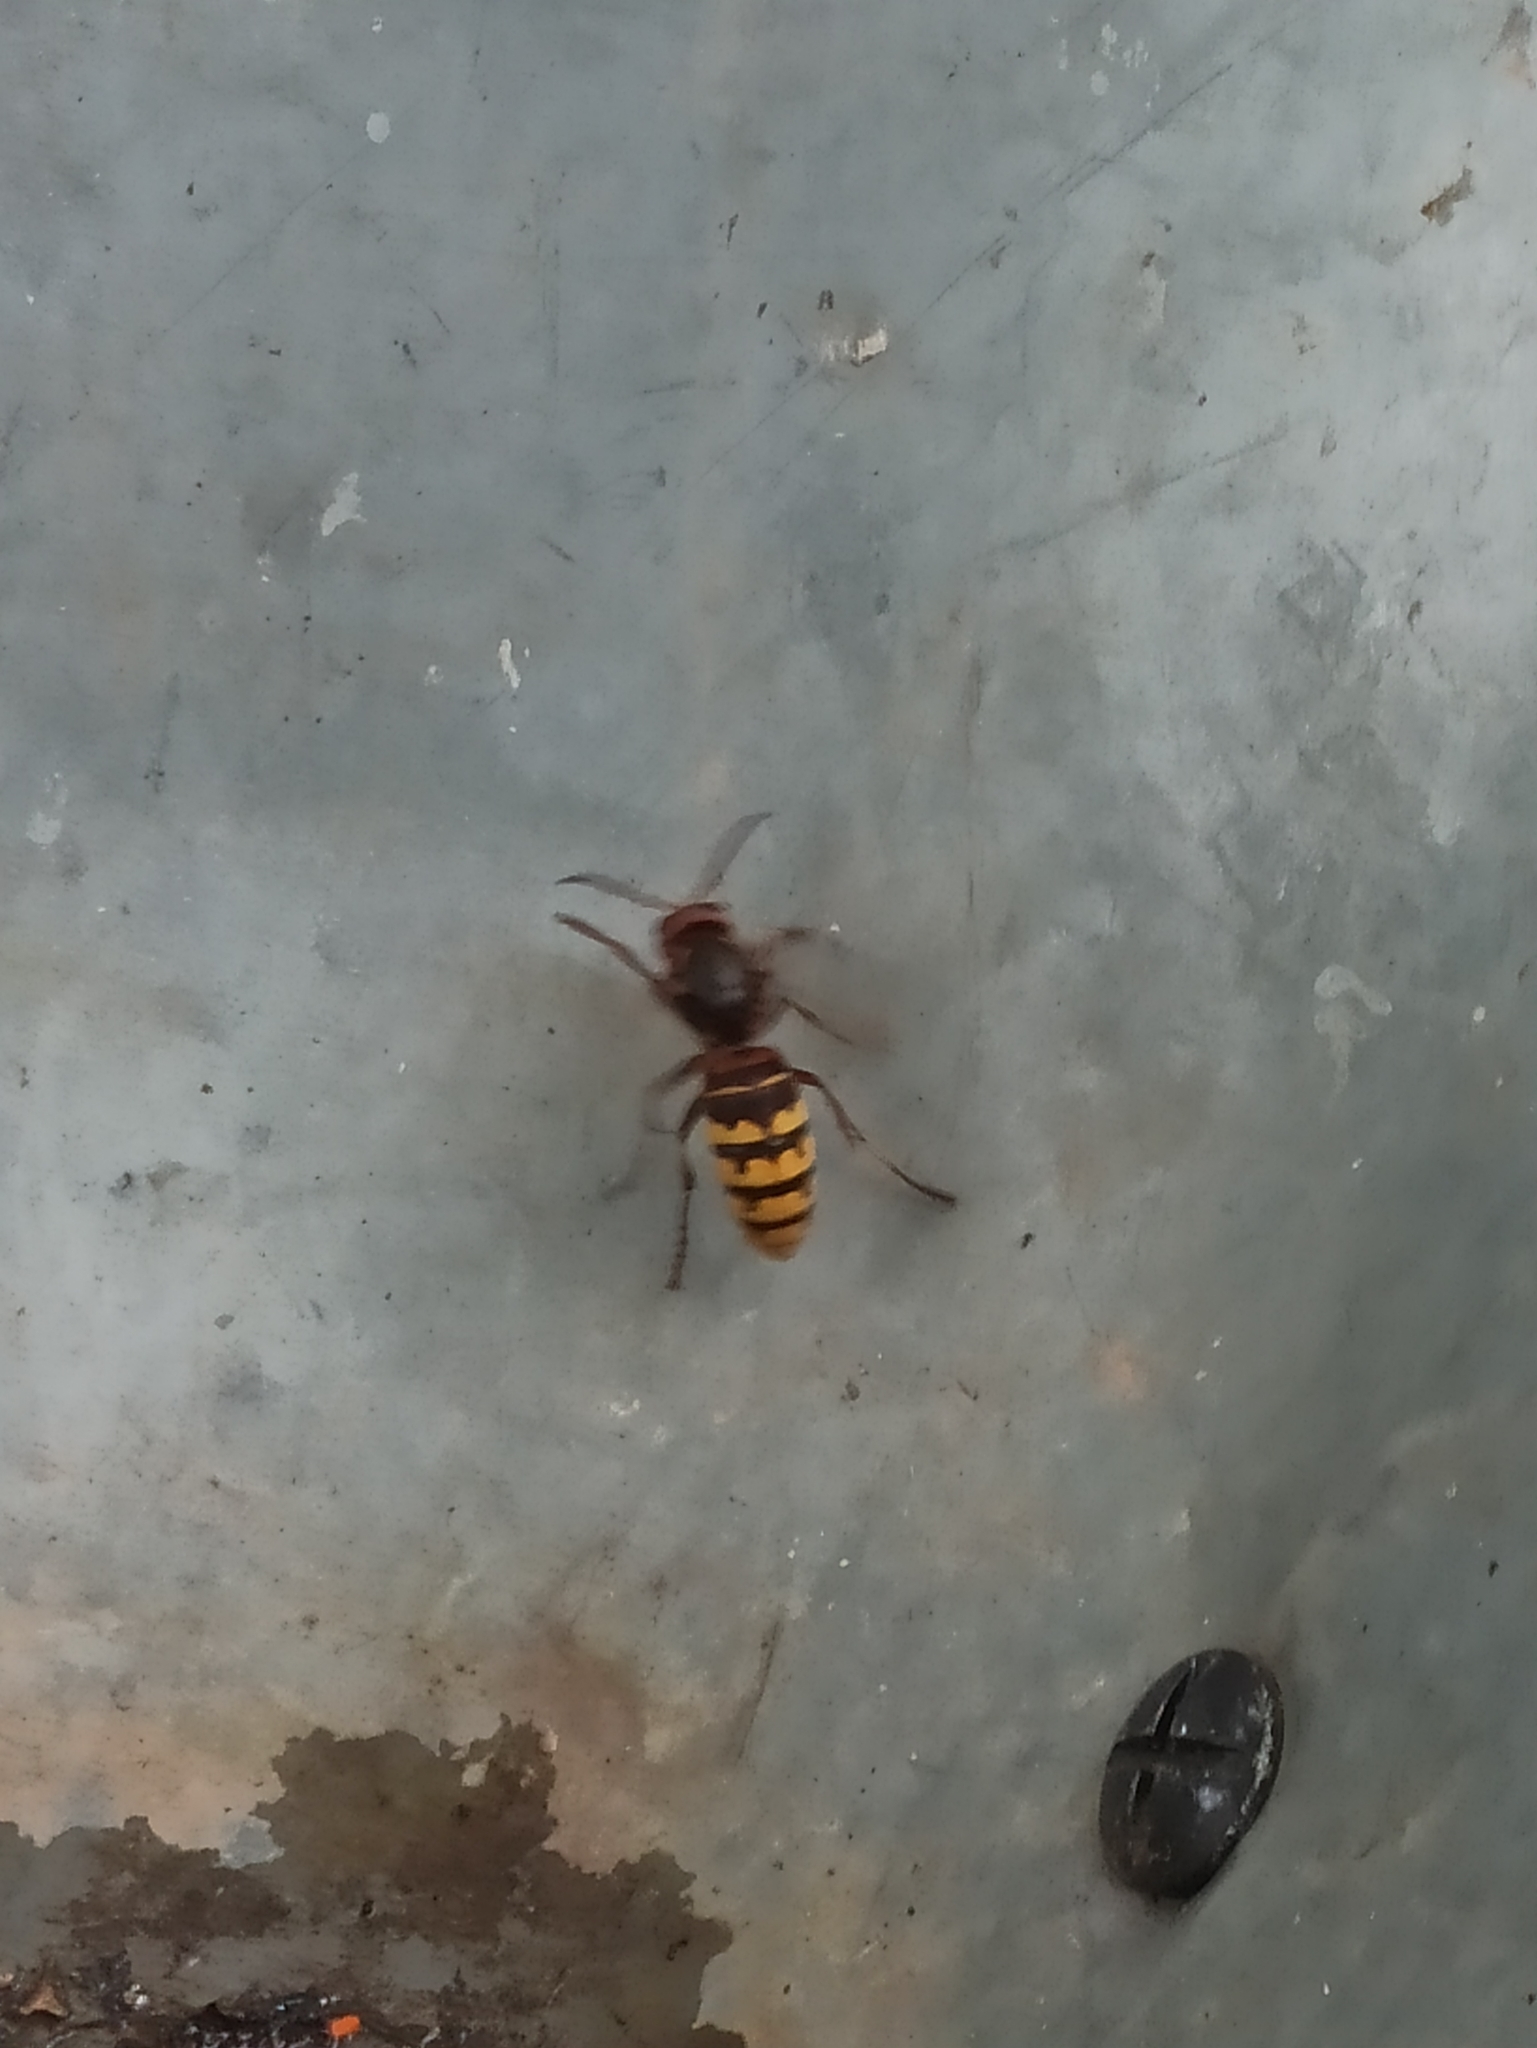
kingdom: Animalia
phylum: Arthropoda
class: Insecta
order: Hymenoptera
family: Vespidae
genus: Vespa
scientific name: Vespa crabro
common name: Hornet
